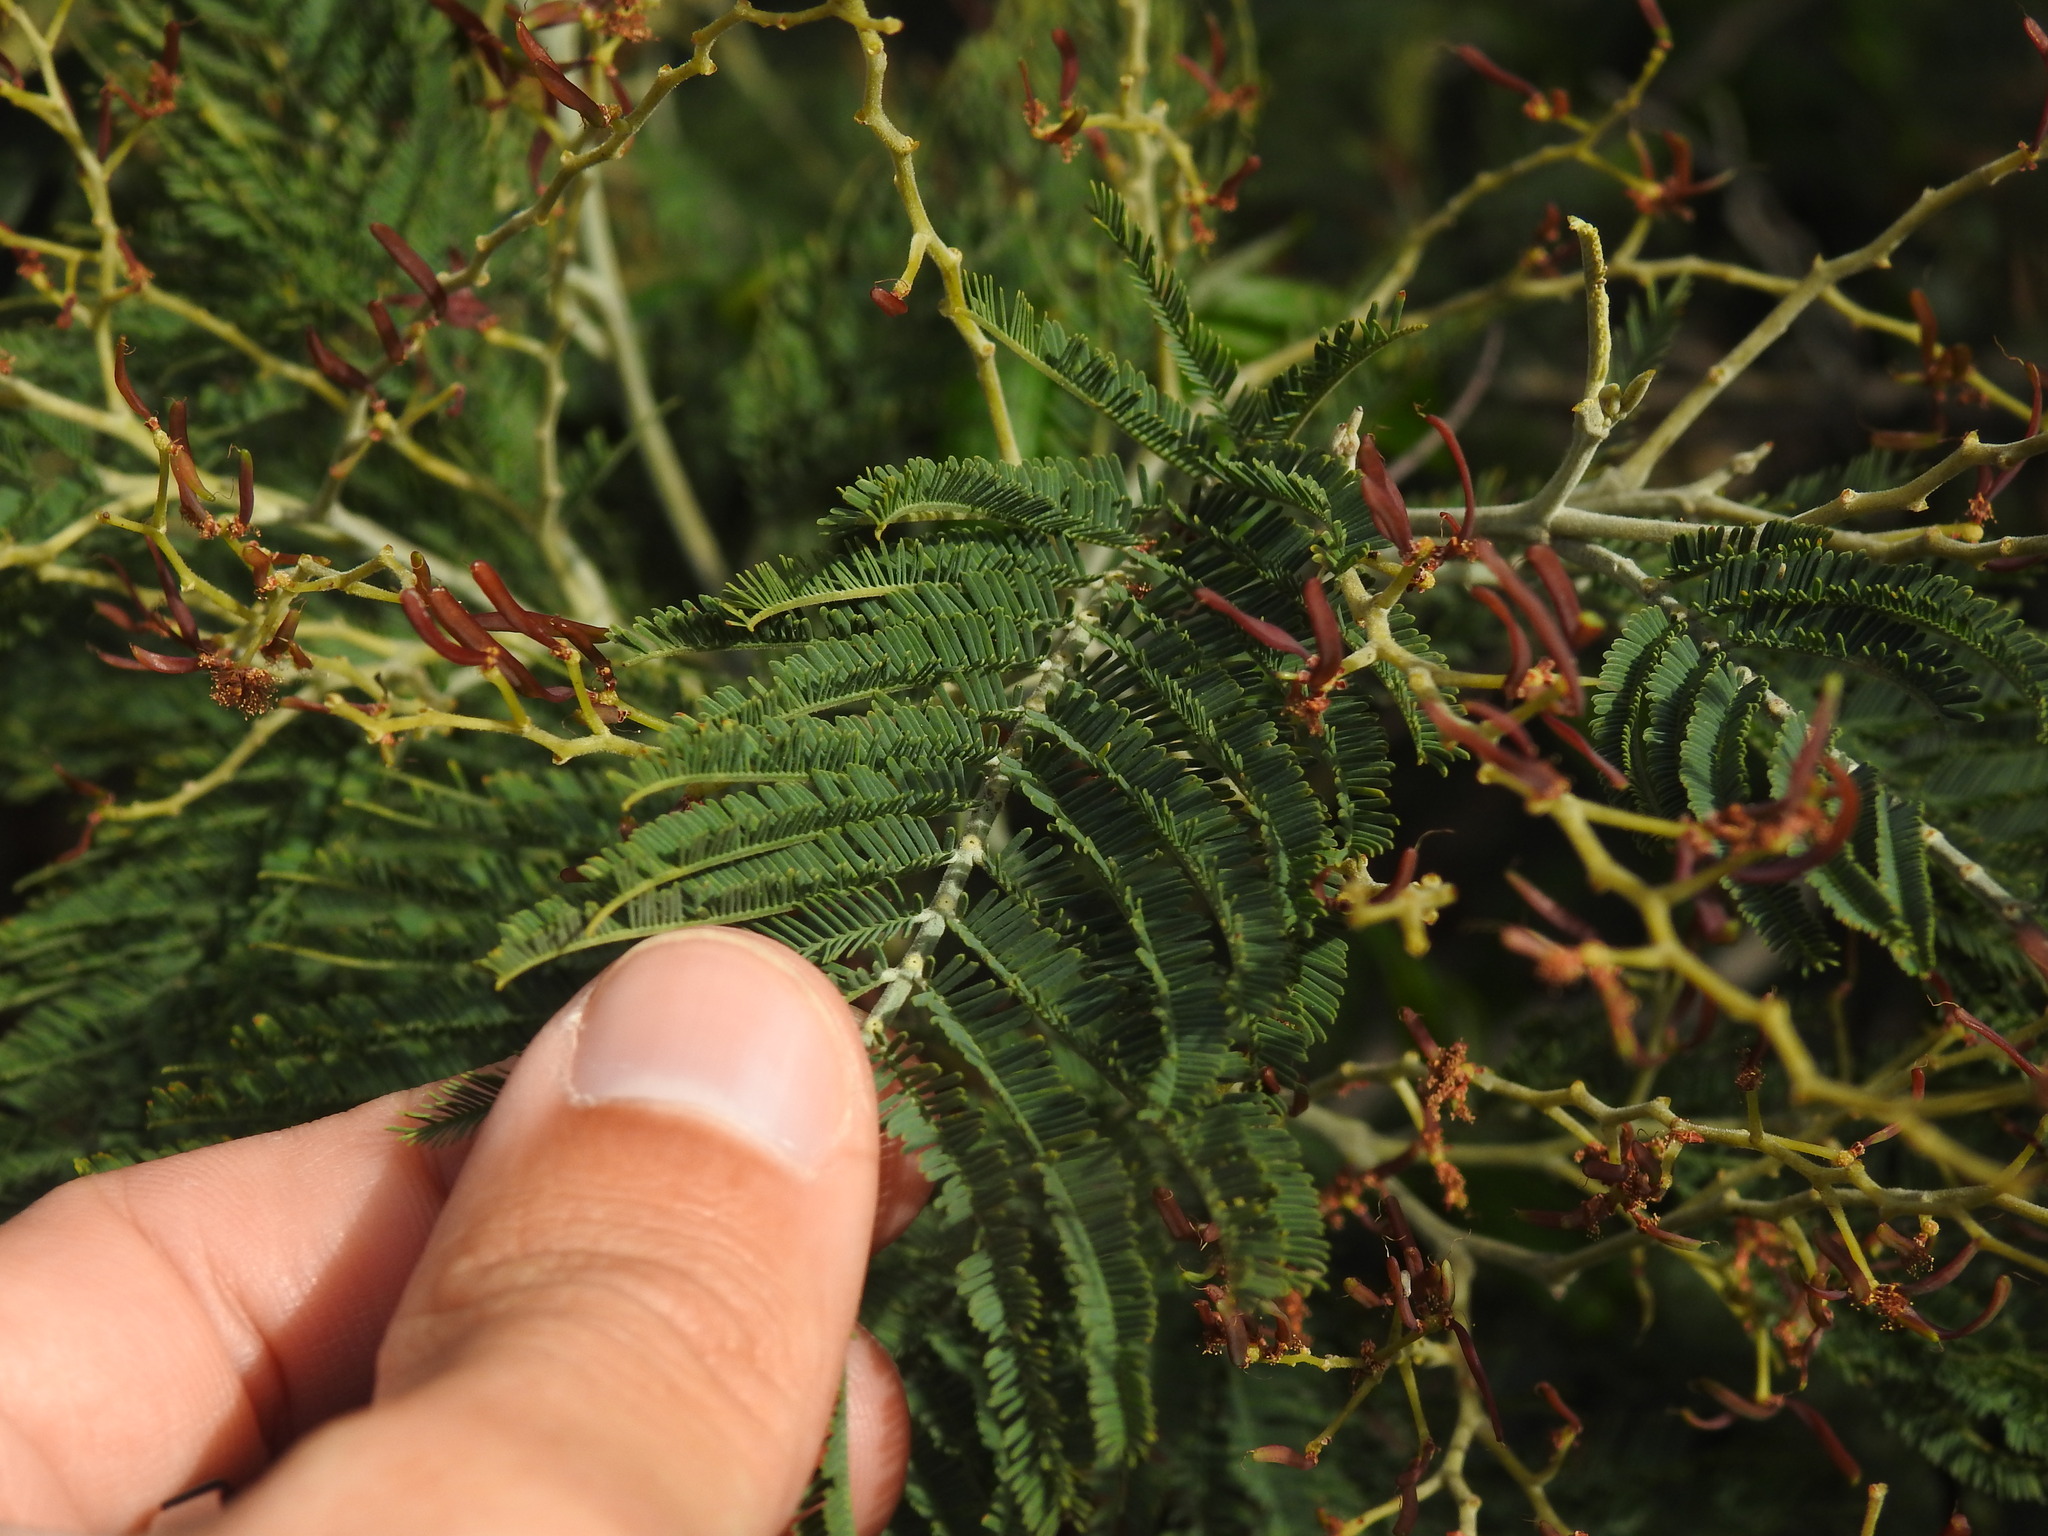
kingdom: Plantae
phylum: Tracheophyta
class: Magnoliopsida
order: Fabales
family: Fabaceae
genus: Acacia
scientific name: Acacia dealbata
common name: Silver wattle
